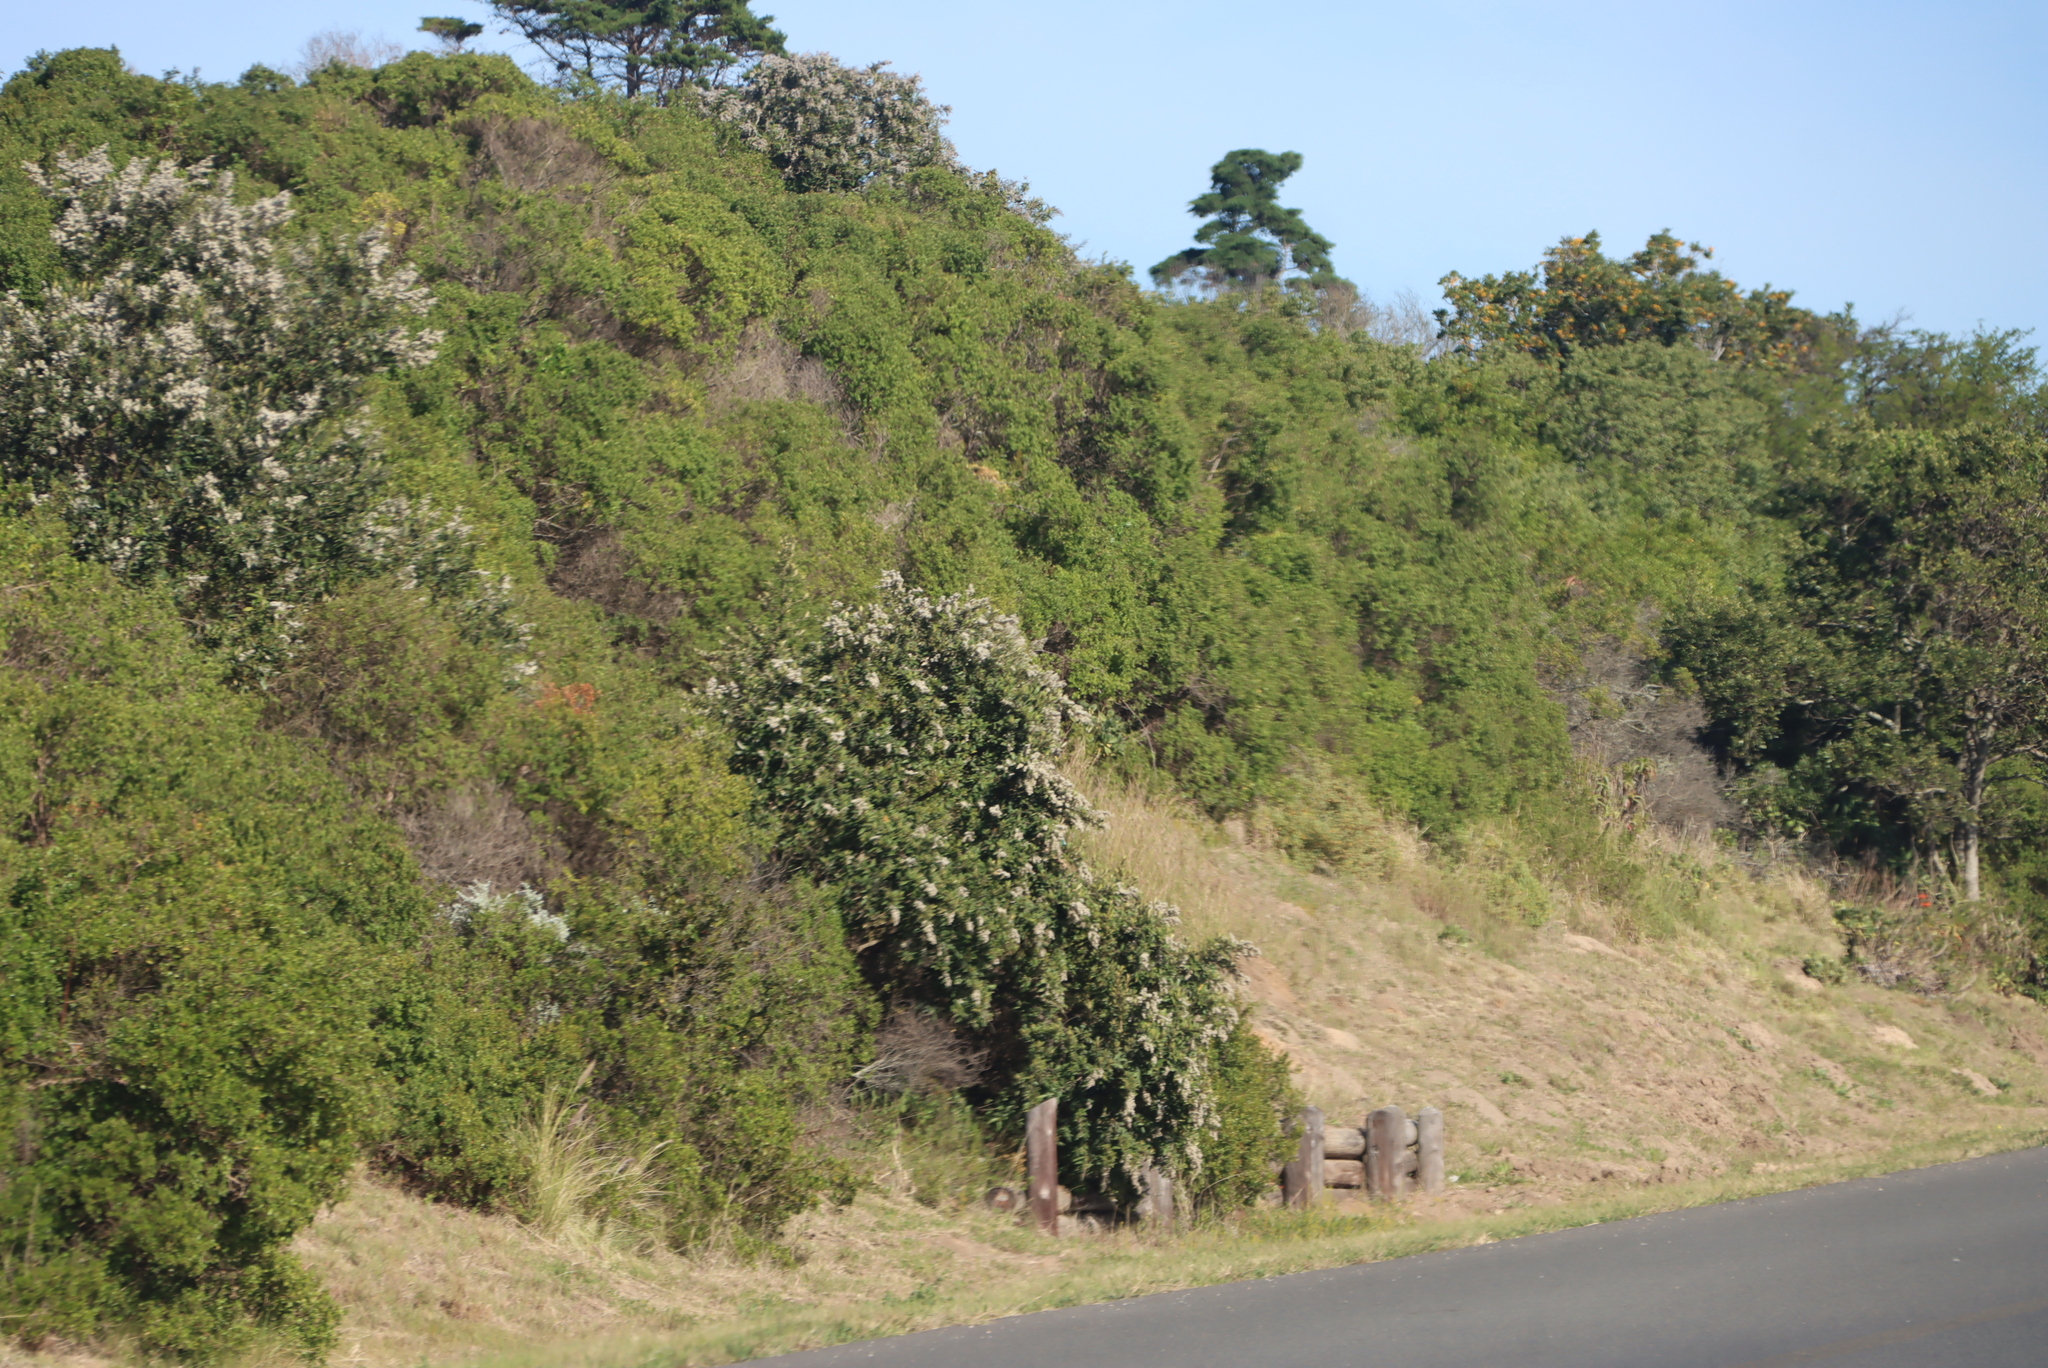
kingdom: Plantae
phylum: Tracheophyta
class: Magnoliopsida
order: Asterales
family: Asteraceae
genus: Tarchonanthus
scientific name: Tarchonanthus littoralis
